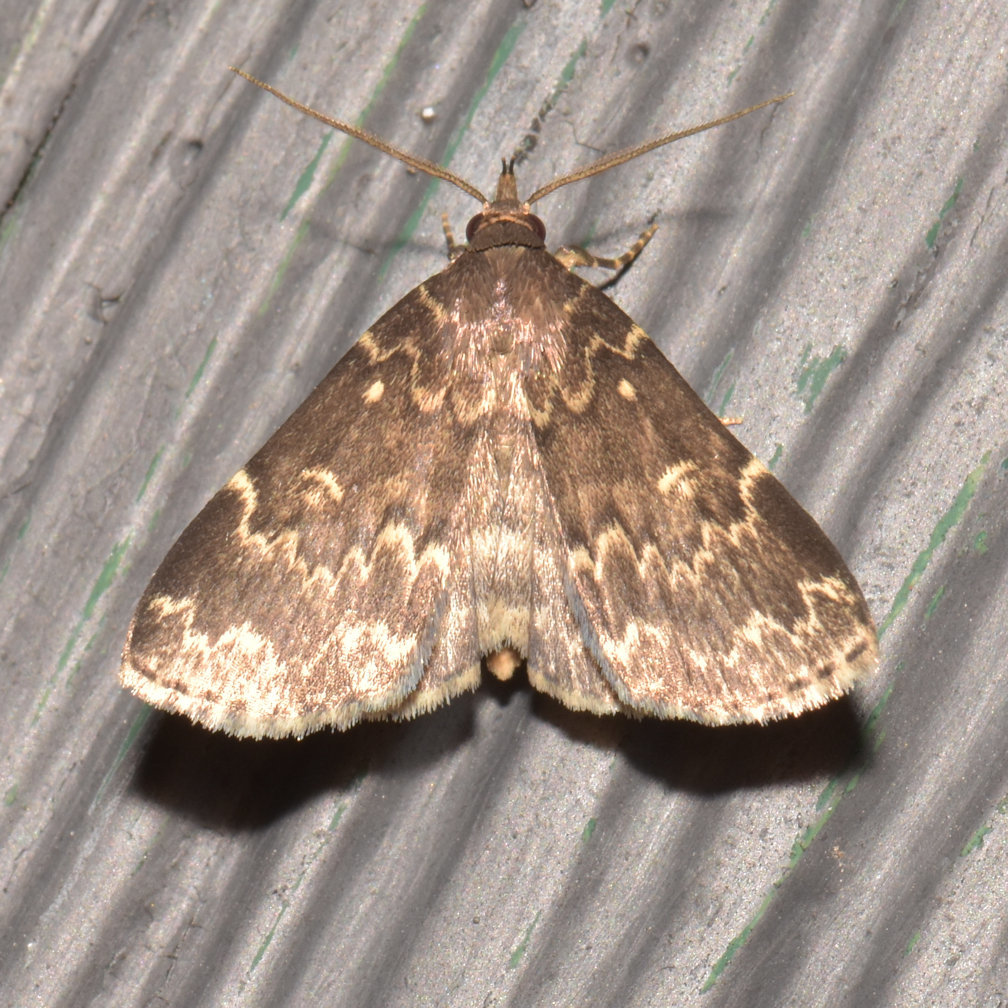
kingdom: Animalia
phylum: Arthropoda
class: Insecta
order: Lepidoptera
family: Erebidae
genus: Idia
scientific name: Idia lubricalis
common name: Twin-striped tabby
